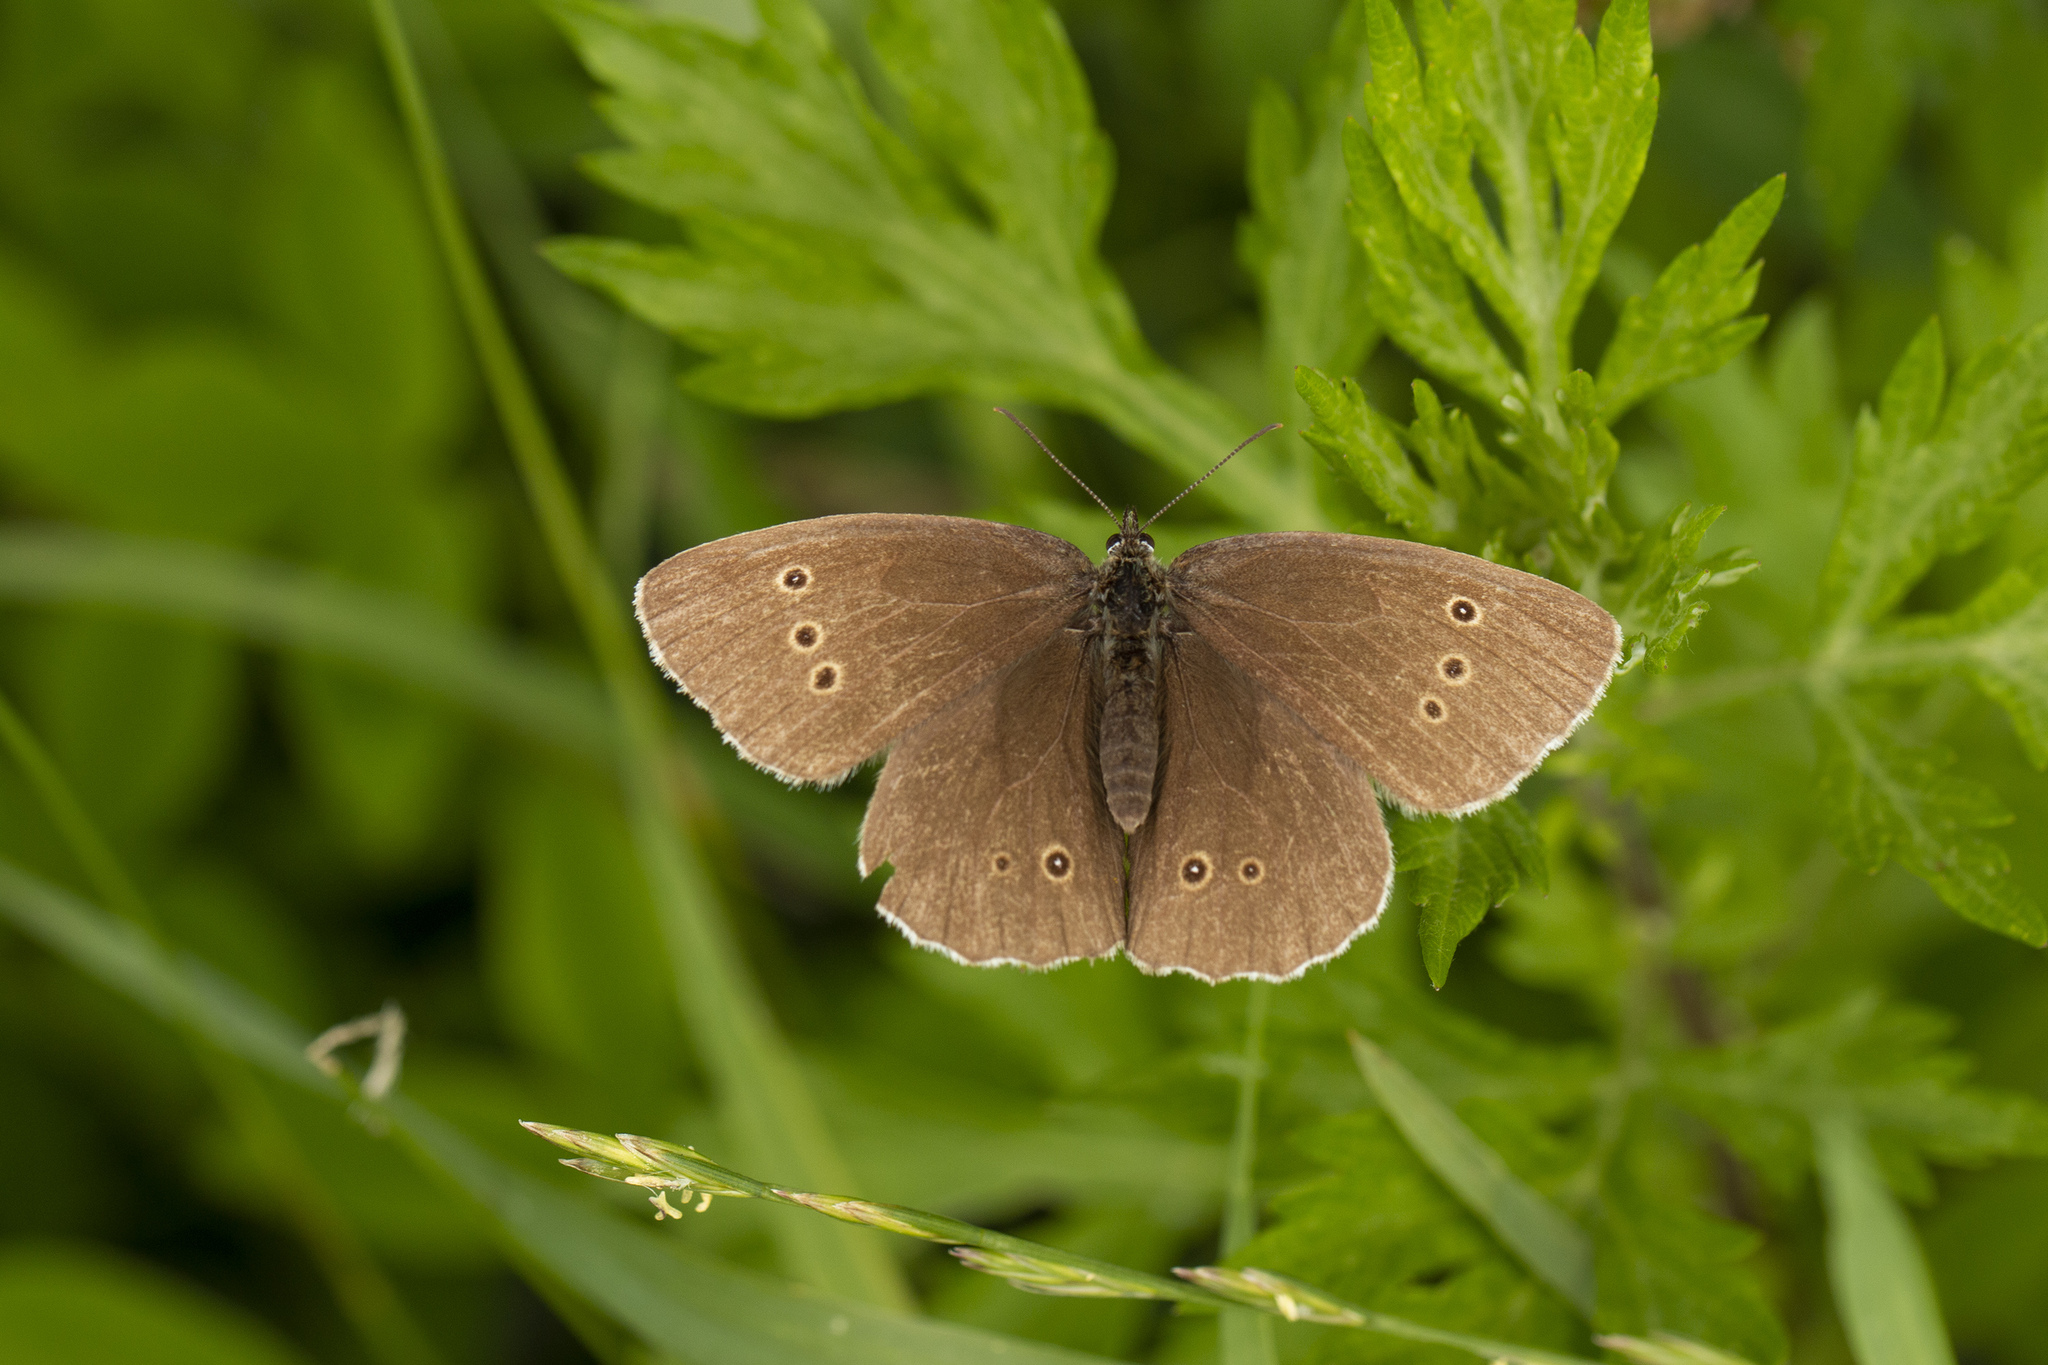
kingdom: Animalia
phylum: Arthropoda
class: Insecta
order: Lepidoptera
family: Nymphalidae
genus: Aphantopus
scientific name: Aphantopus hyperantus
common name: Ringlet
